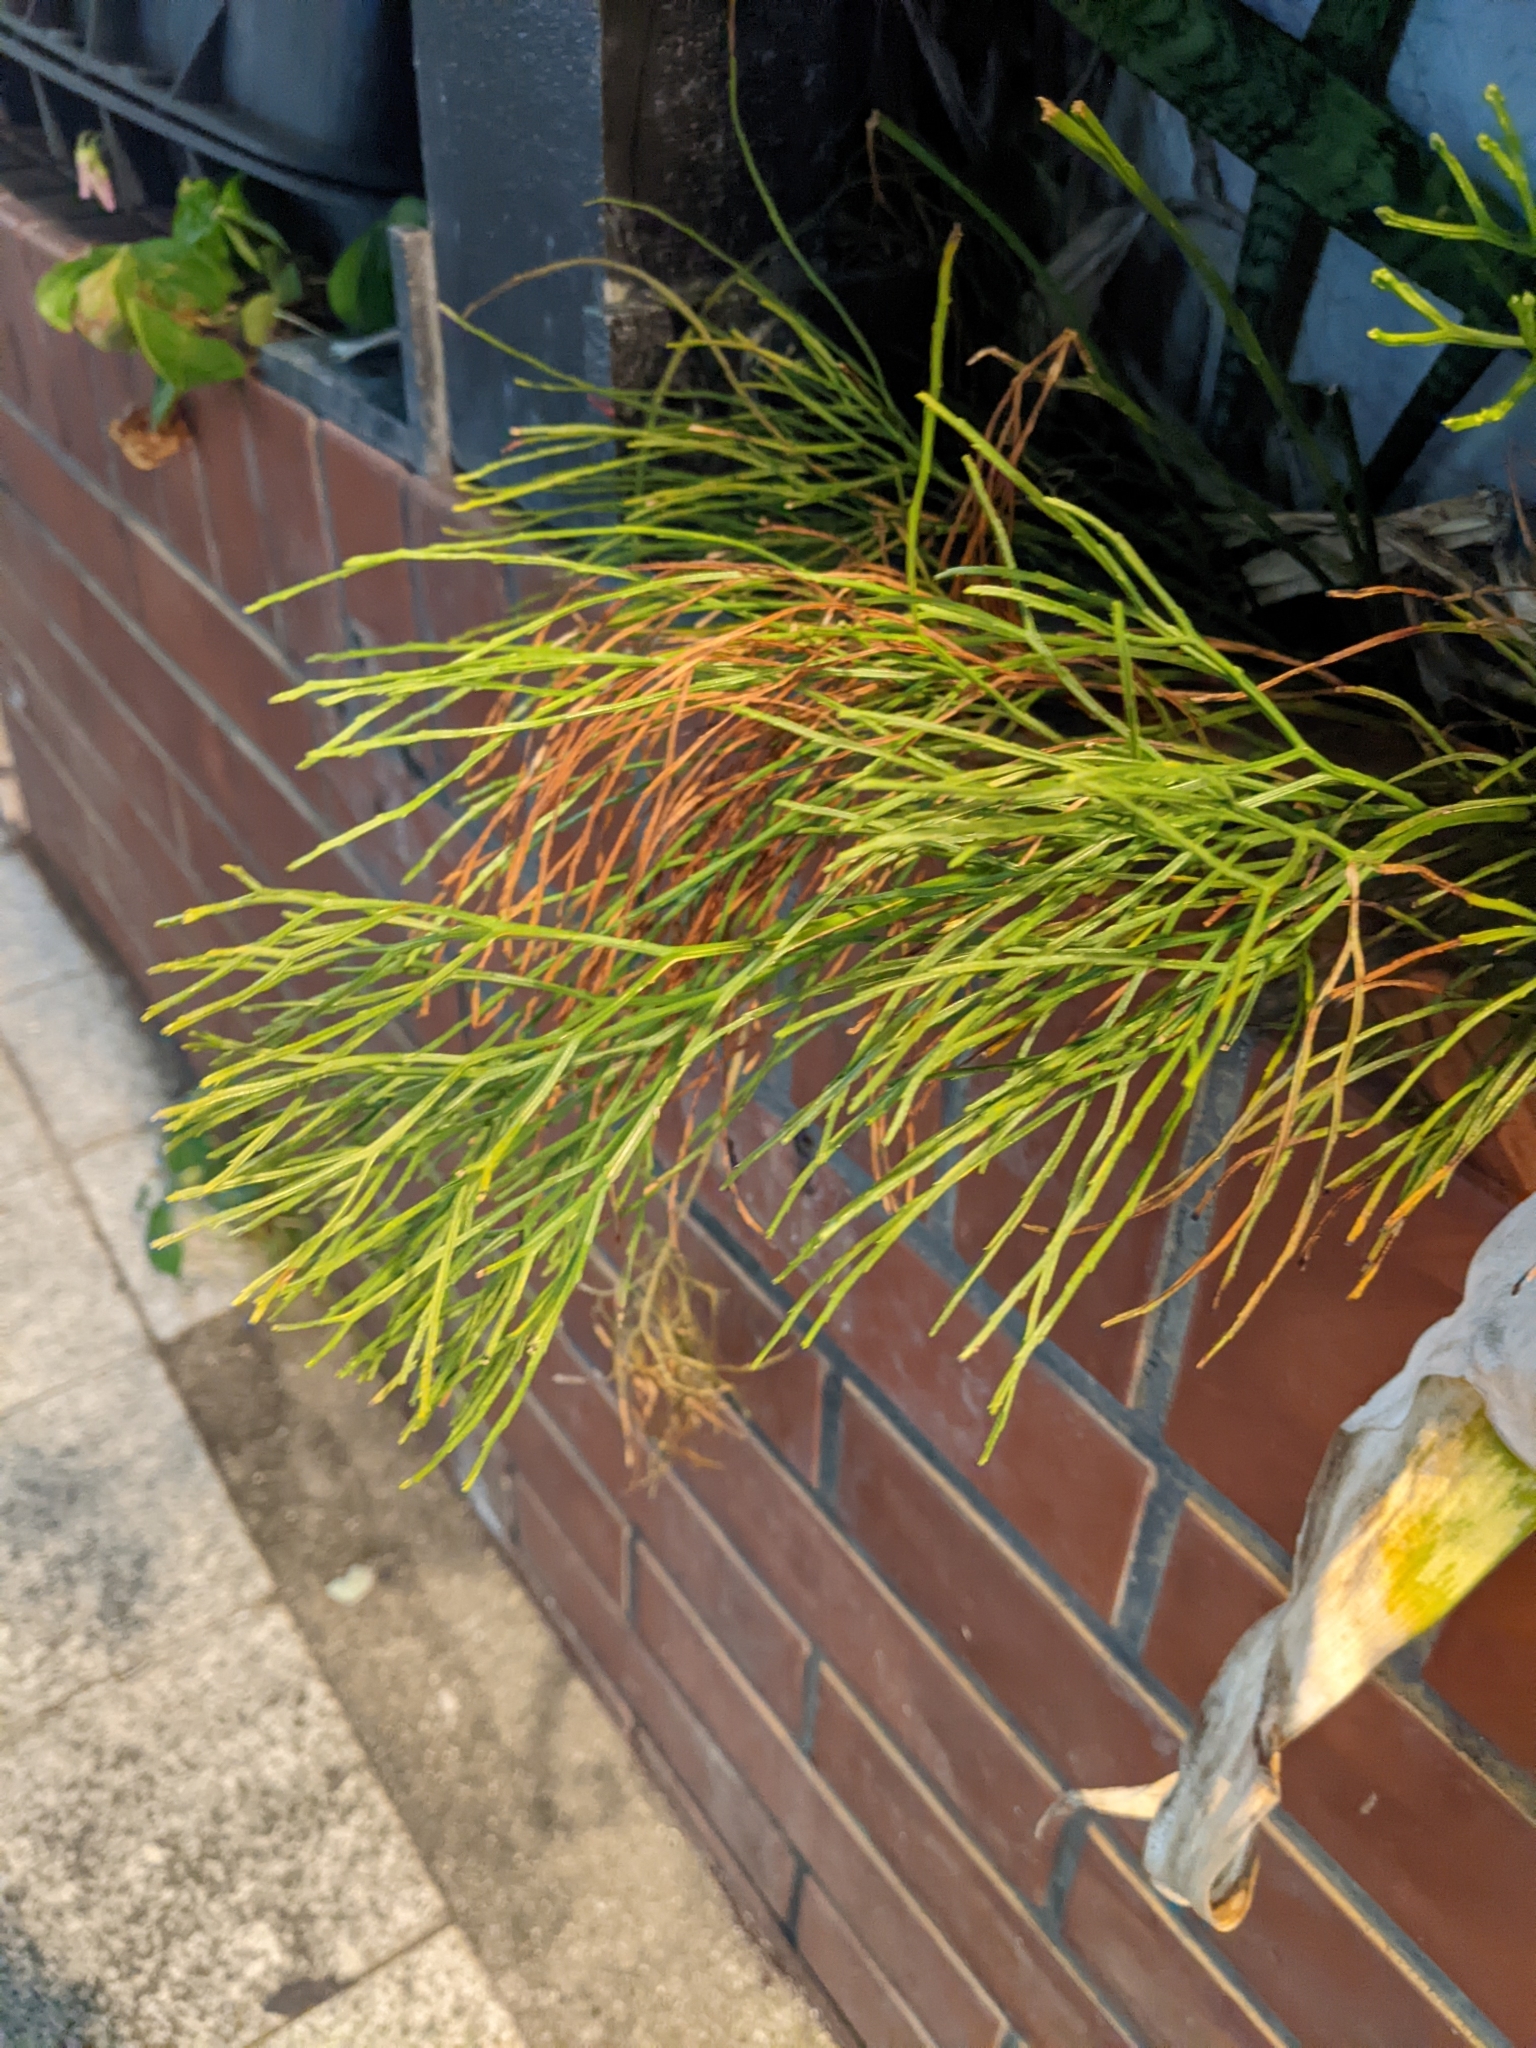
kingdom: Plantae
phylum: Tracheophyta
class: Polypodiopsida
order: Psilotales
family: Psilotaceae
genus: Psilotum
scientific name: Psilotum nudum
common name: Skeleton fork fern
